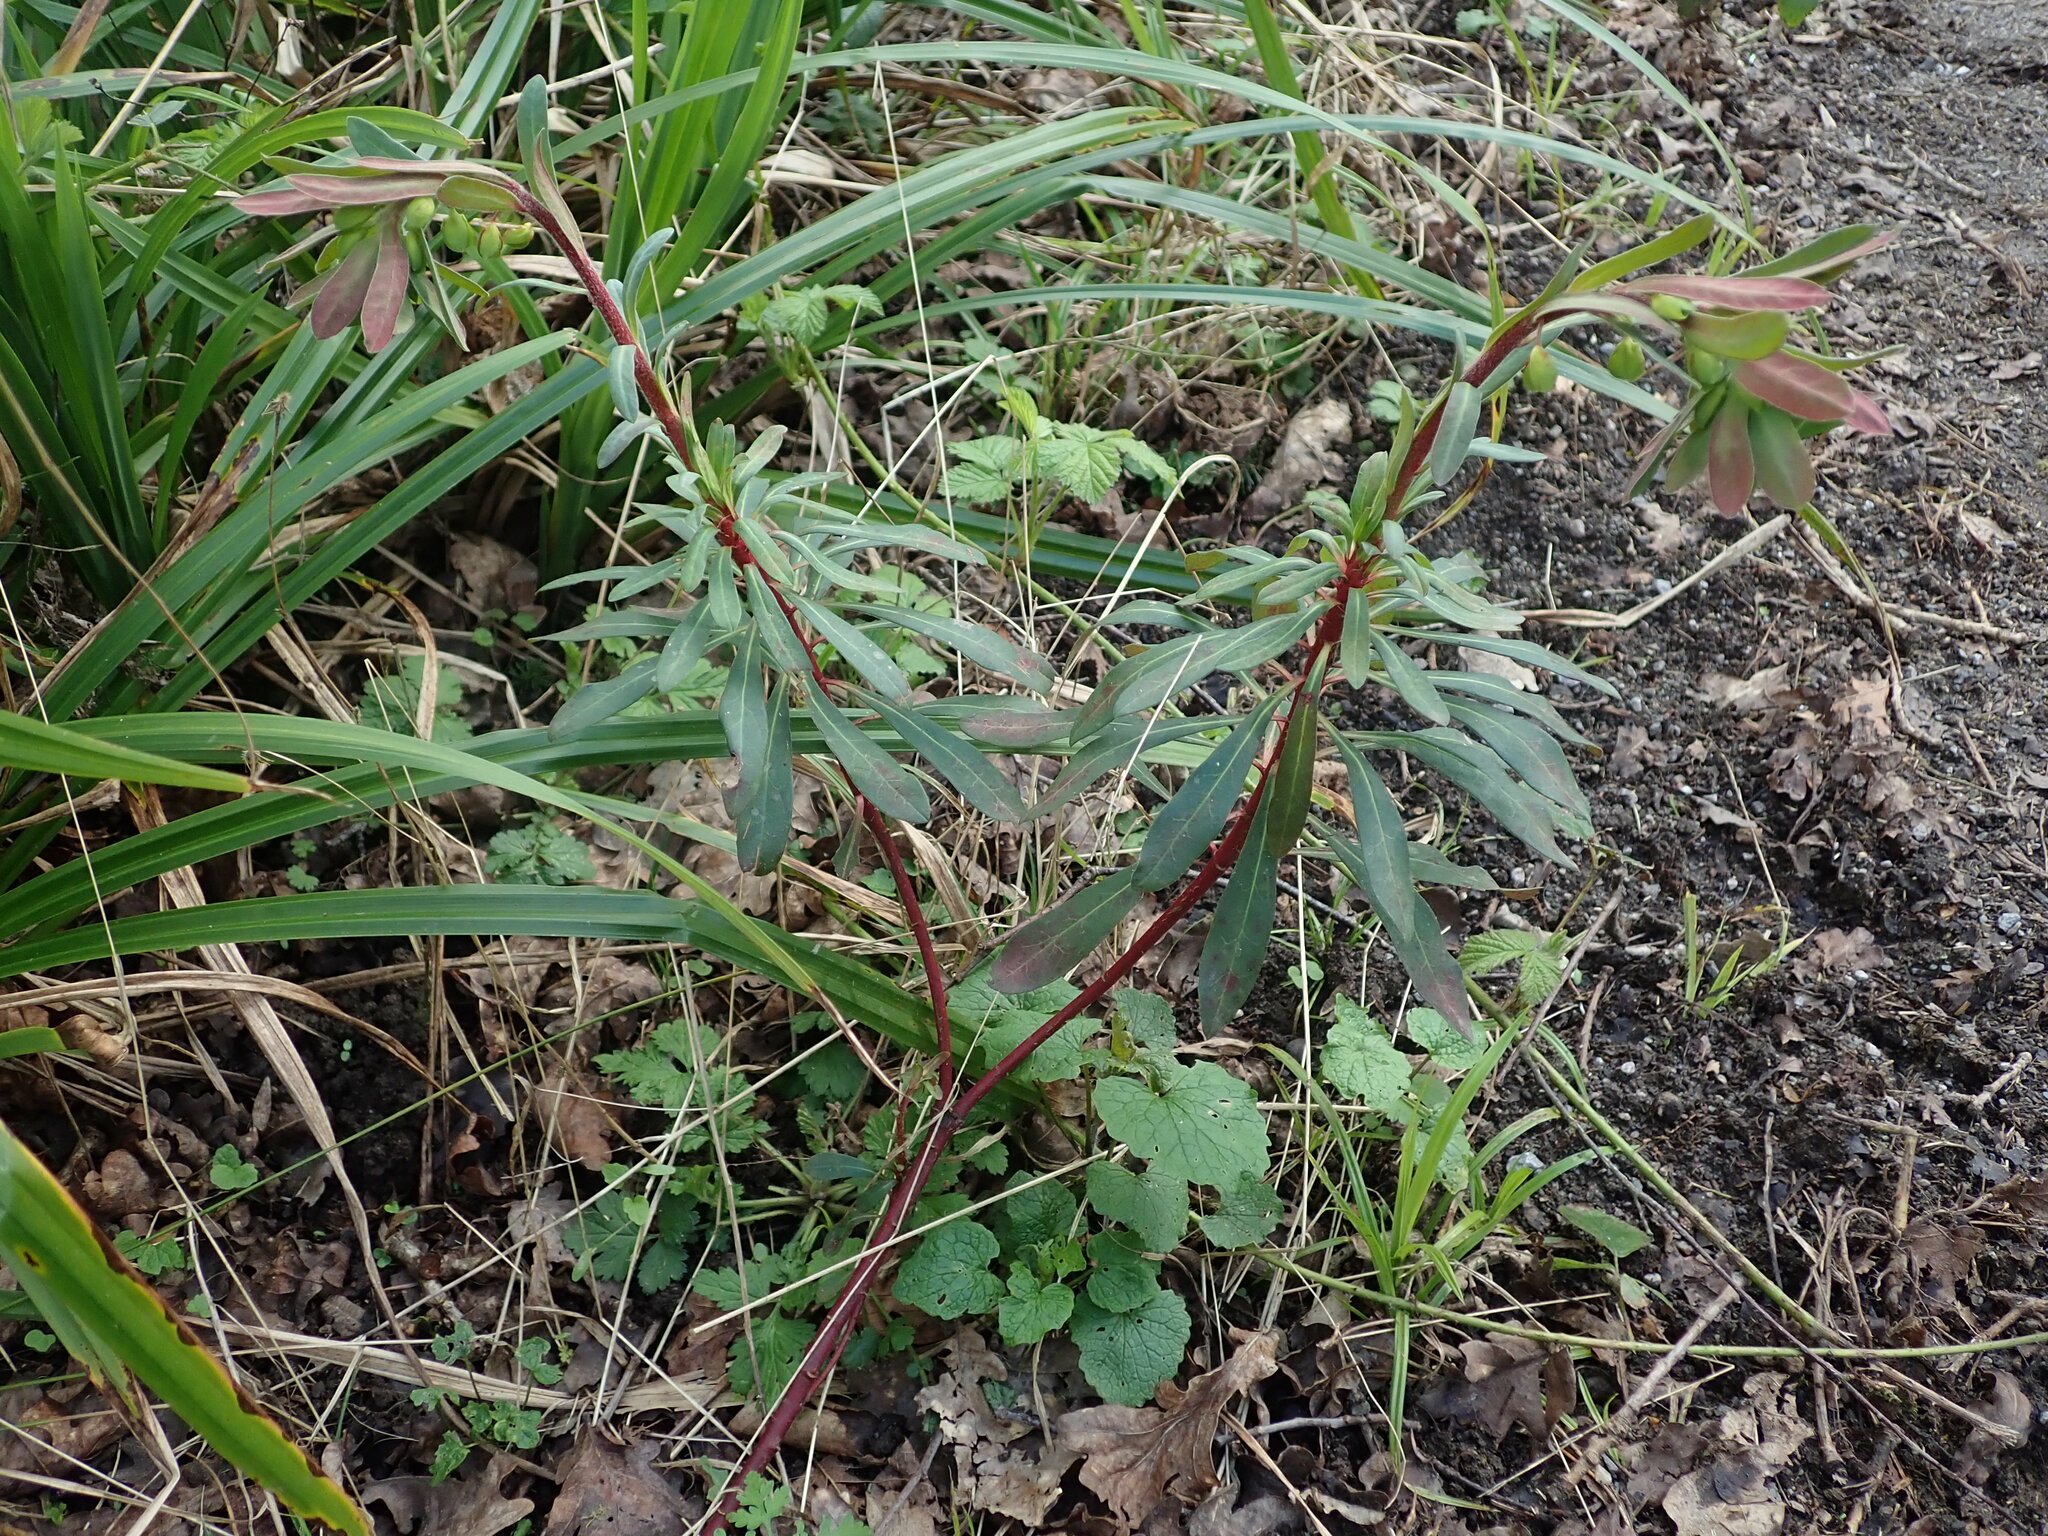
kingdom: Plantae
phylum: Tracheophyta
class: Magnoliopsida
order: Malpighiales
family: Euphorbiaceae
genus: Euphorbia
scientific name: Euphorbia amygdaloides
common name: Wood spurge
